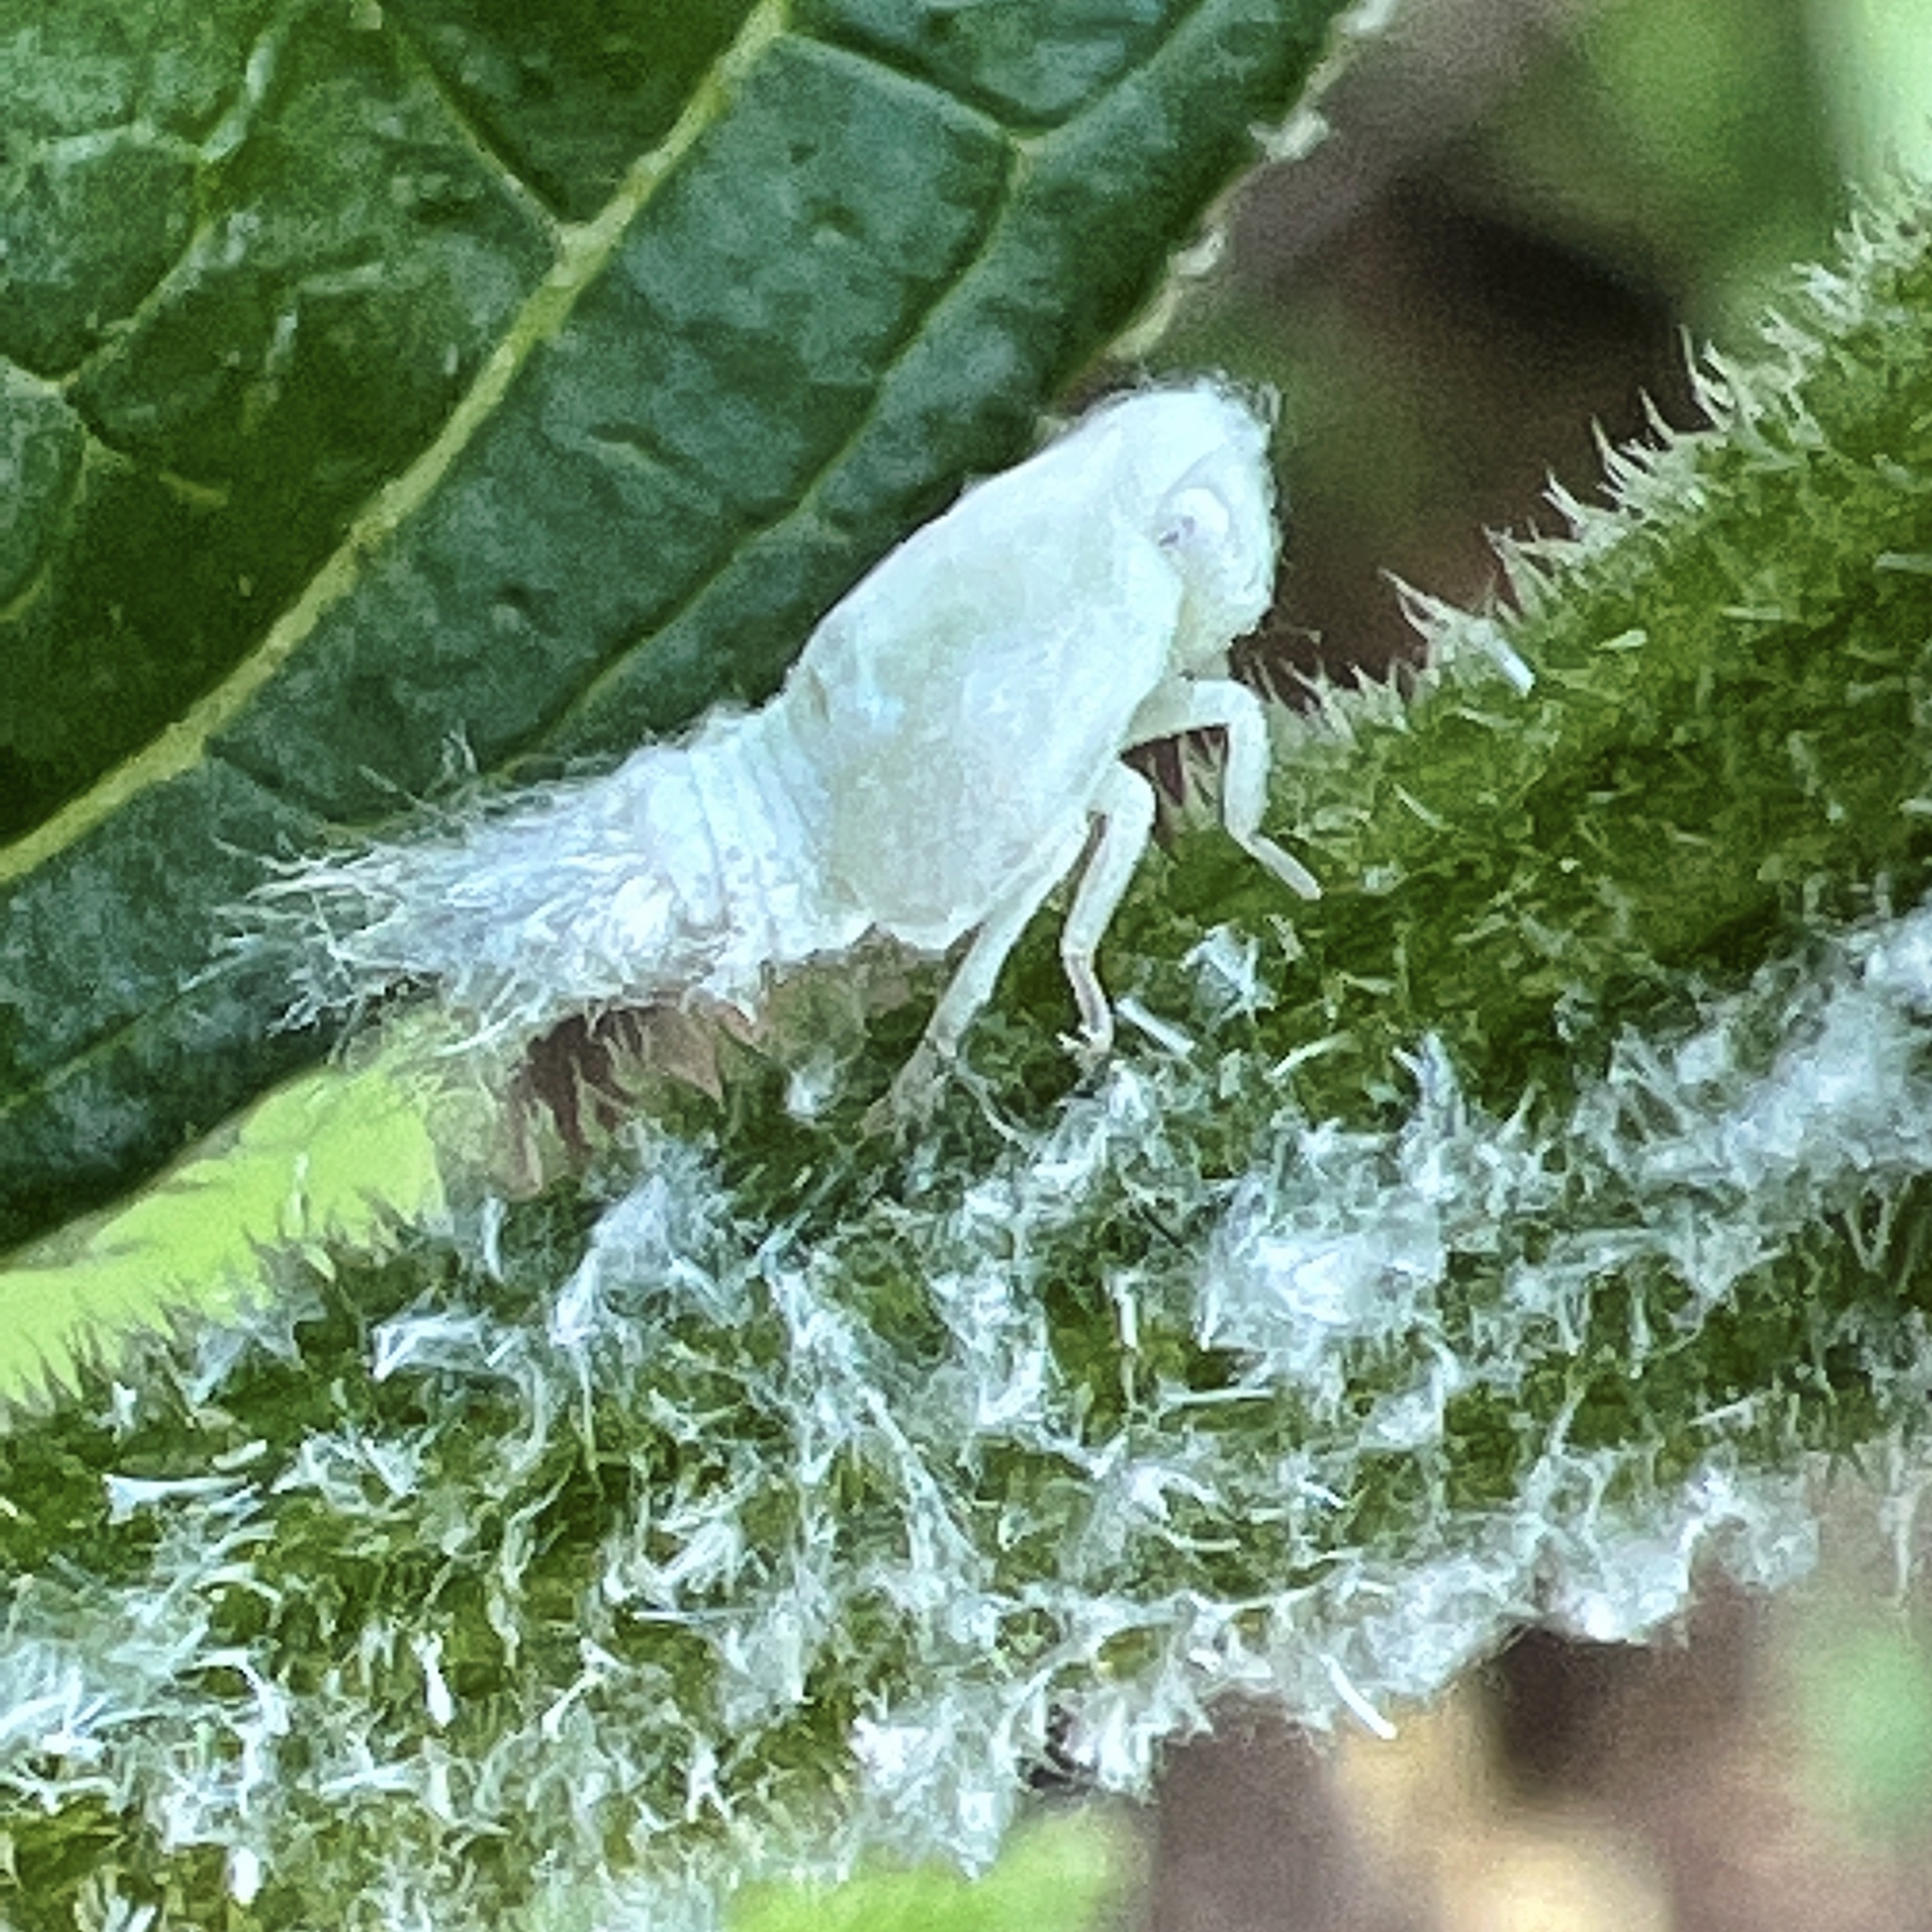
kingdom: Animalia
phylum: Arthropoda
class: Insecta
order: Hemiptera
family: Flatidae
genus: Flatormenis
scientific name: Flatormenis proxima
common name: Northern flatid planthopper
